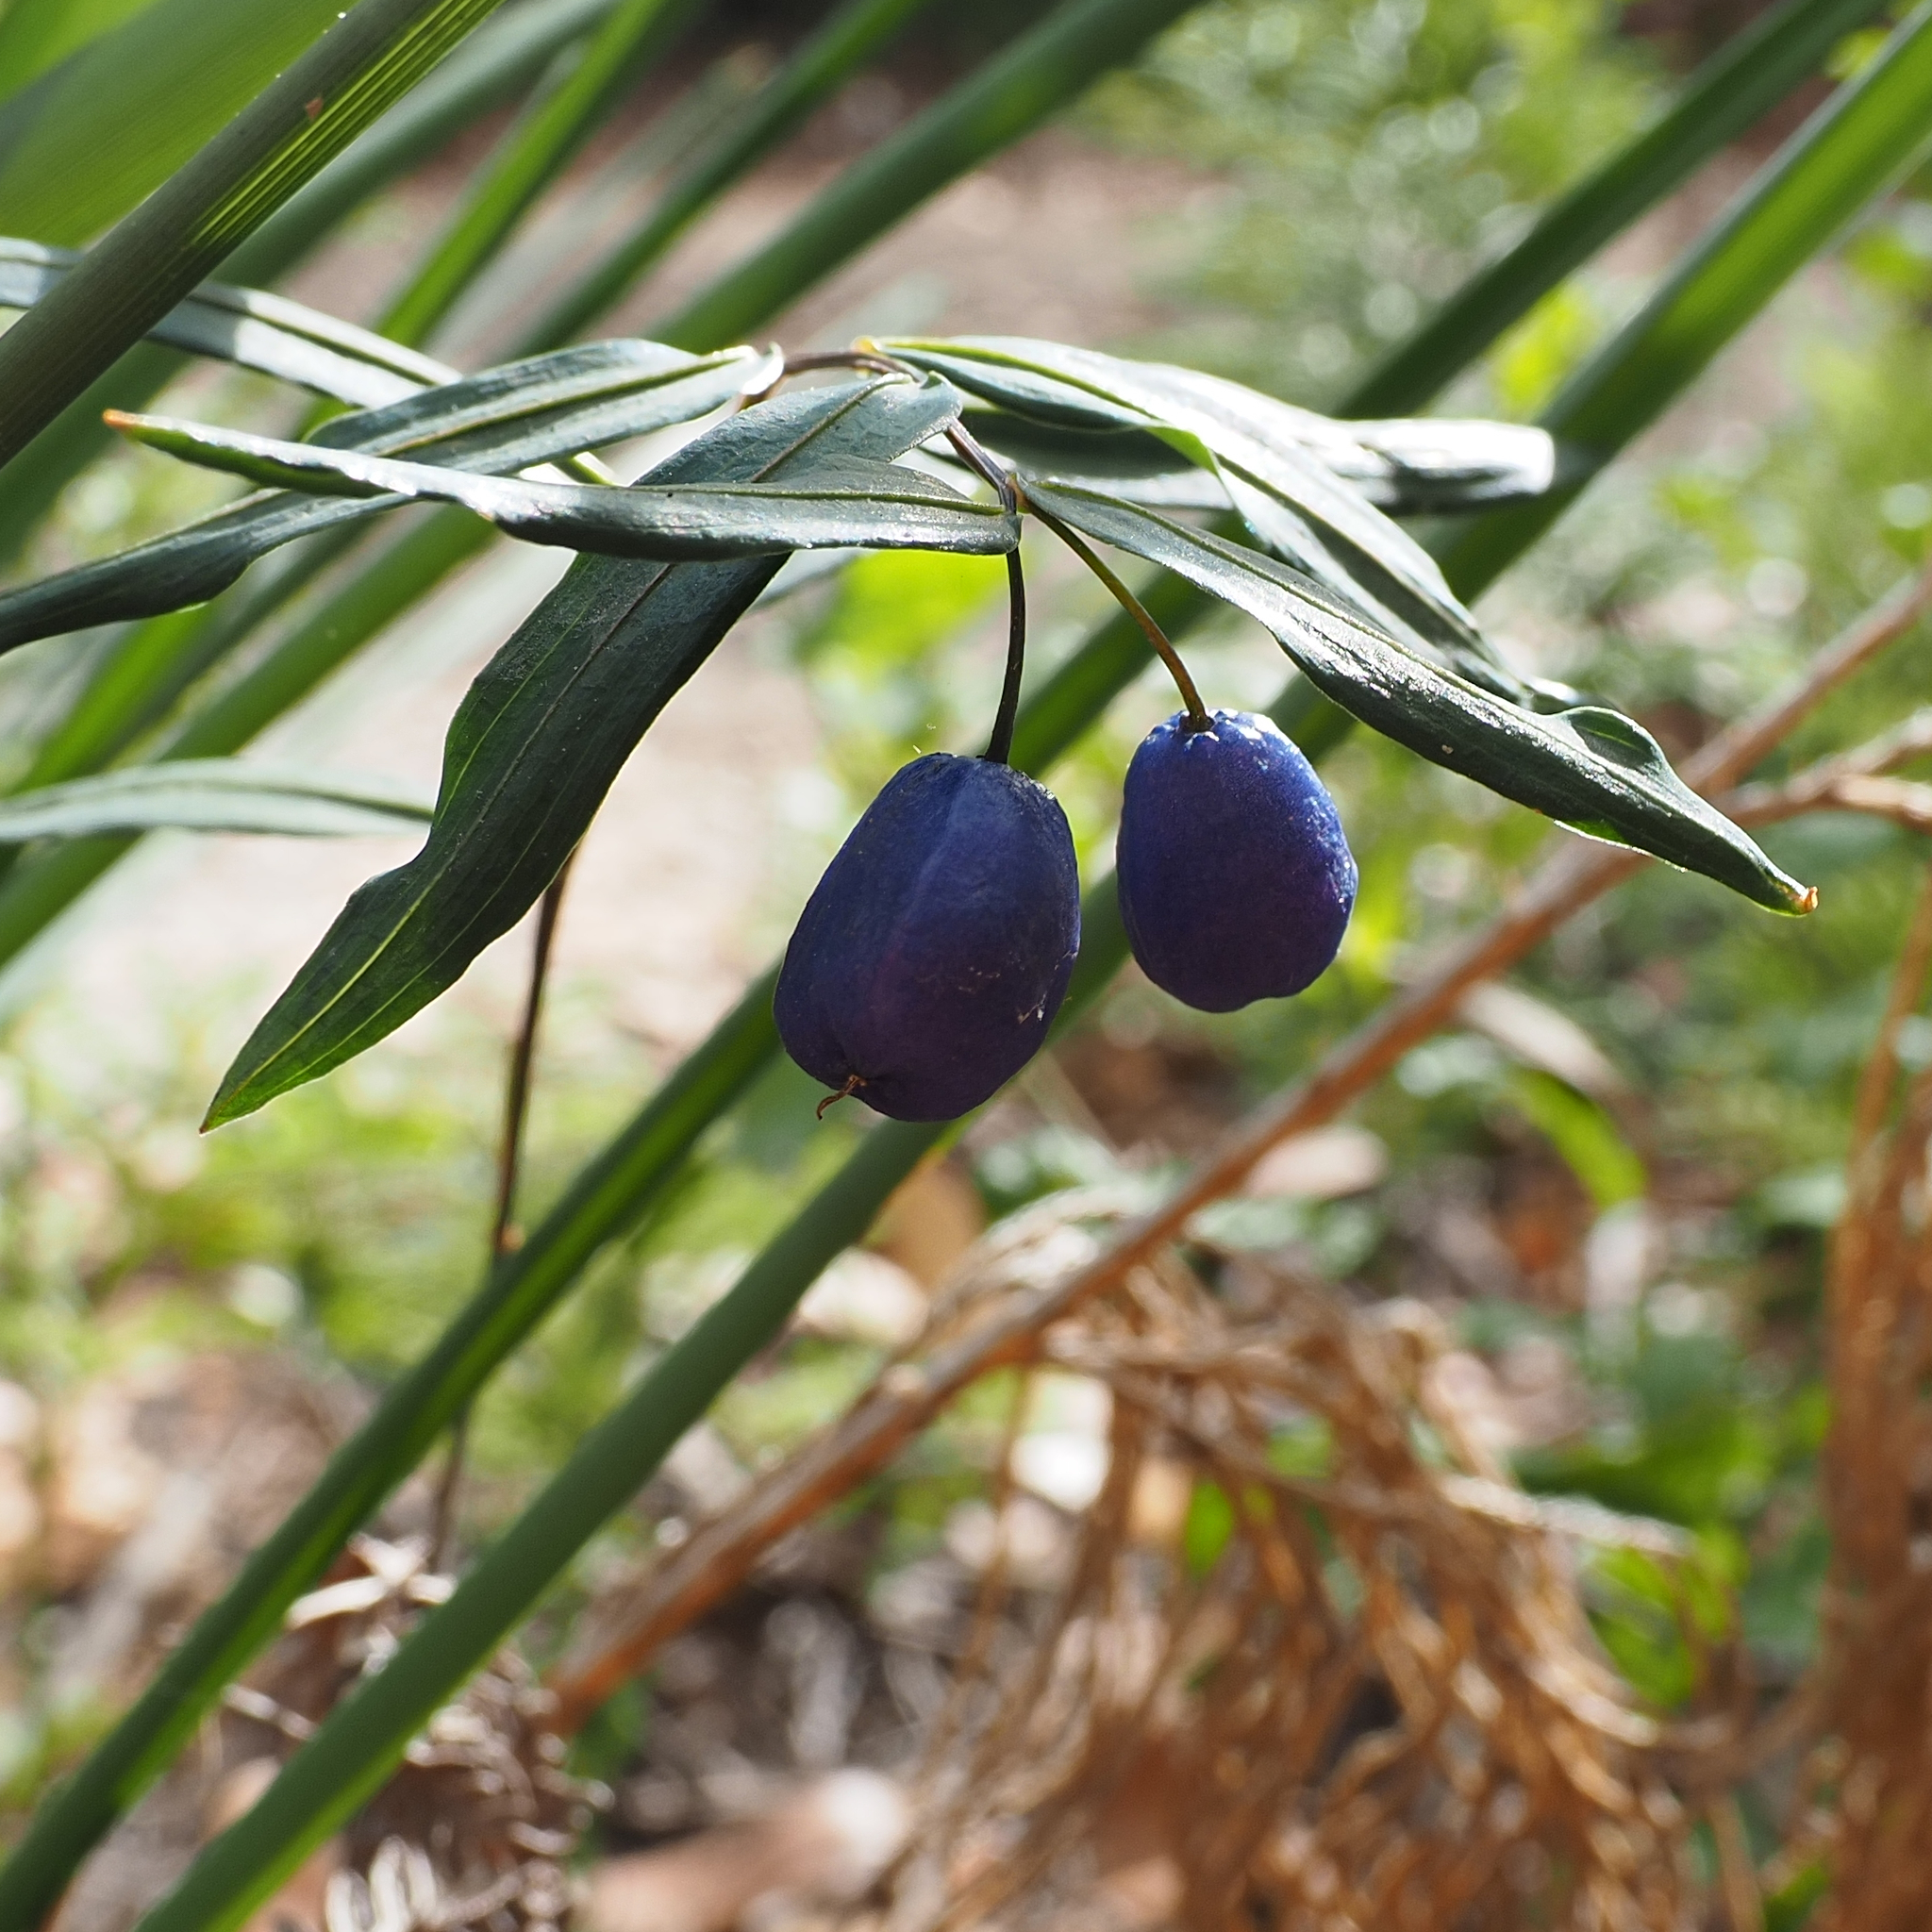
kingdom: Plantae
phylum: Tracheophyta
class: Liliopsida
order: Liliales
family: Alstroemeriaceae
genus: Drymophila
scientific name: Drymophila cyanocarpa
